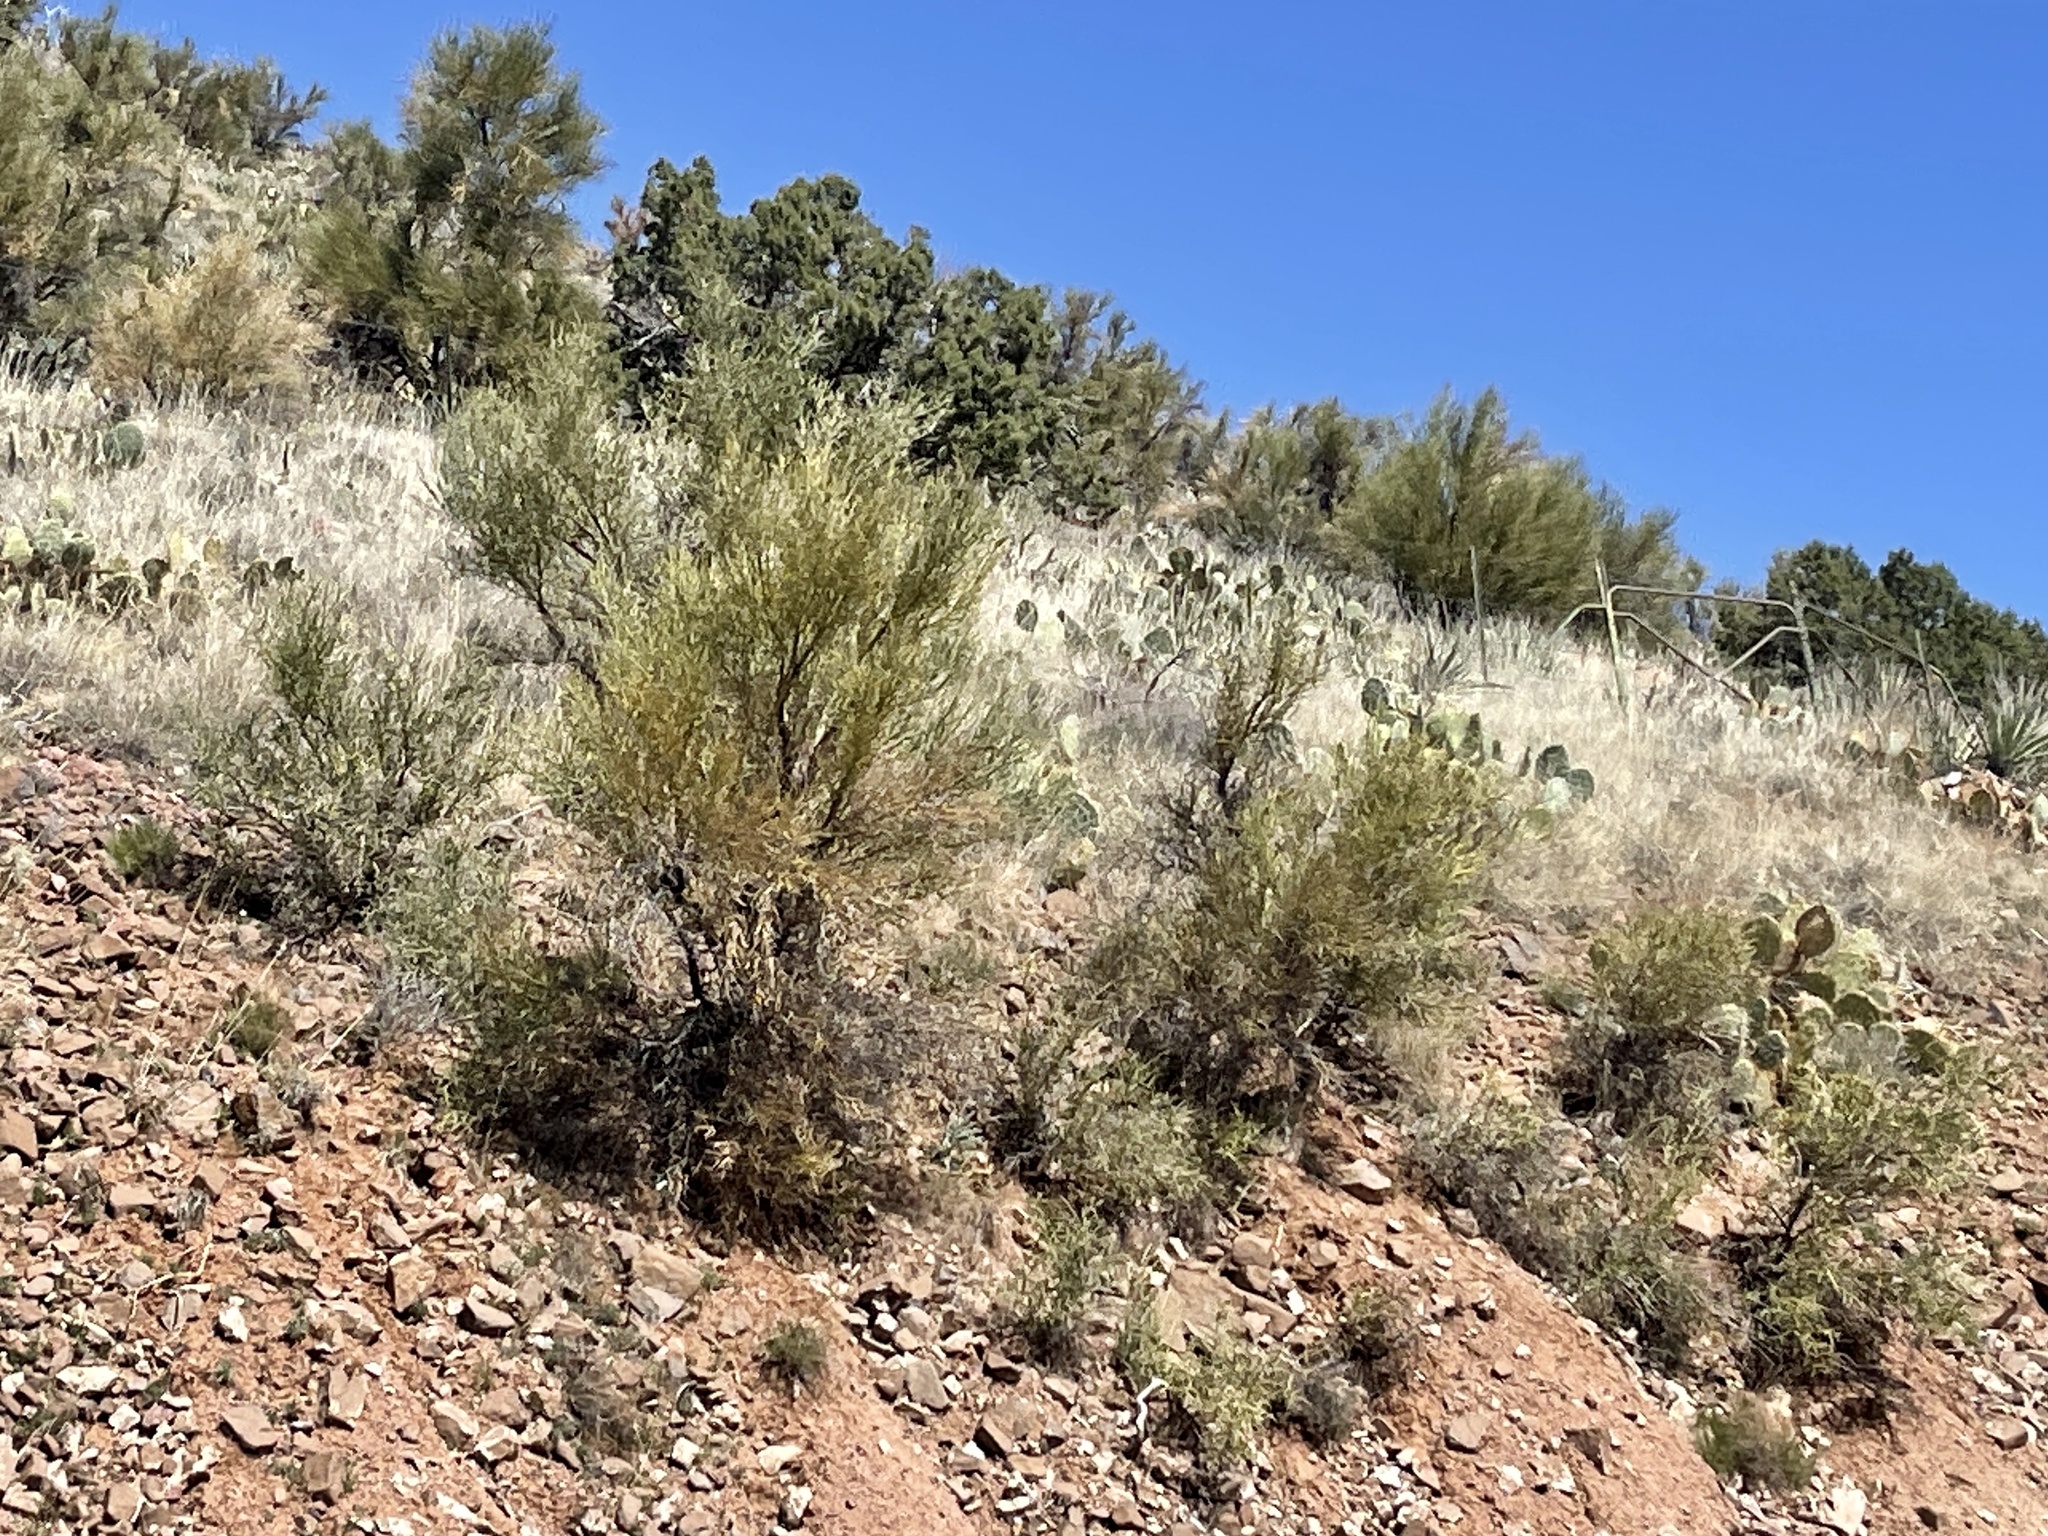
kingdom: Plantae
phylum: Tracheophyta
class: Magnoliopsida
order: Celastrales
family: Celastraceae
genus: Canotia
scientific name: Canotia holacantha
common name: Crucifixion thorns
